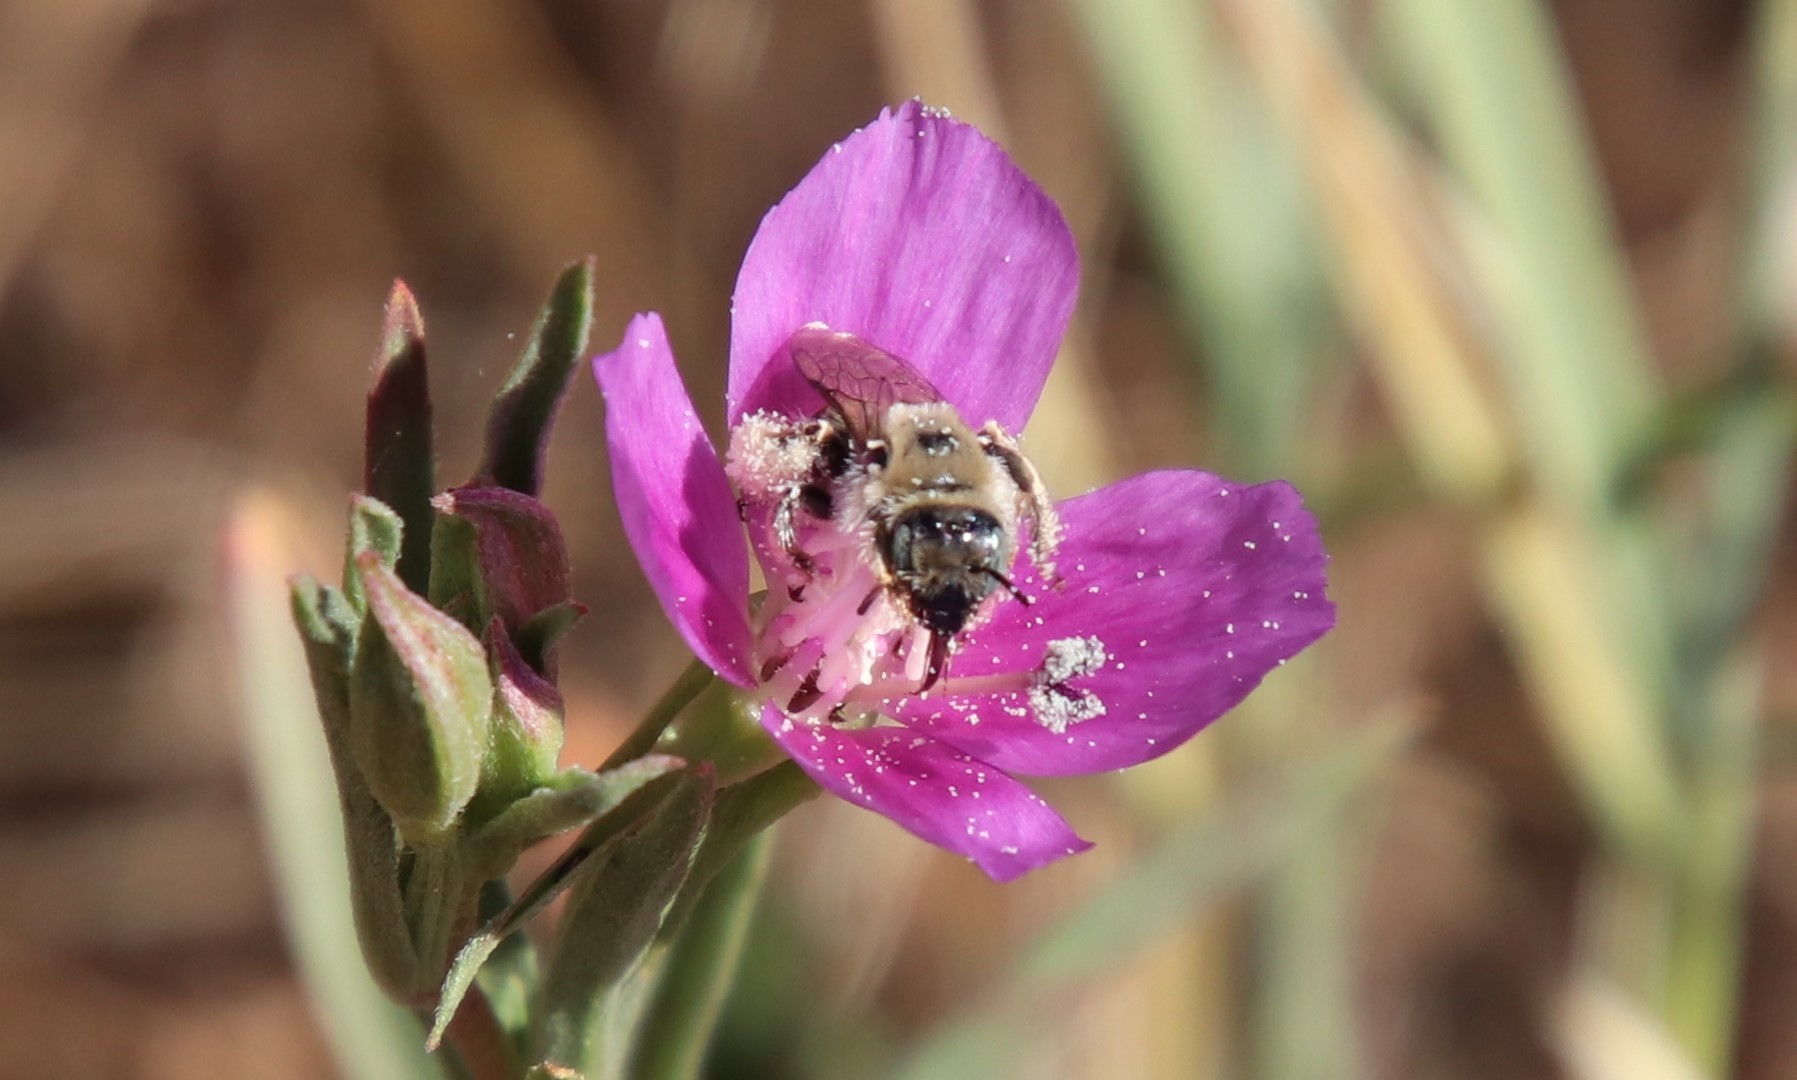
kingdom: Plantae
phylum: Tracheophyta
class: Magnoliopsida
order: Myrtales
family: Onagraceae
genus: Clarkia
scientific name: Clarkia purpurea
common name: Purple clarkia
